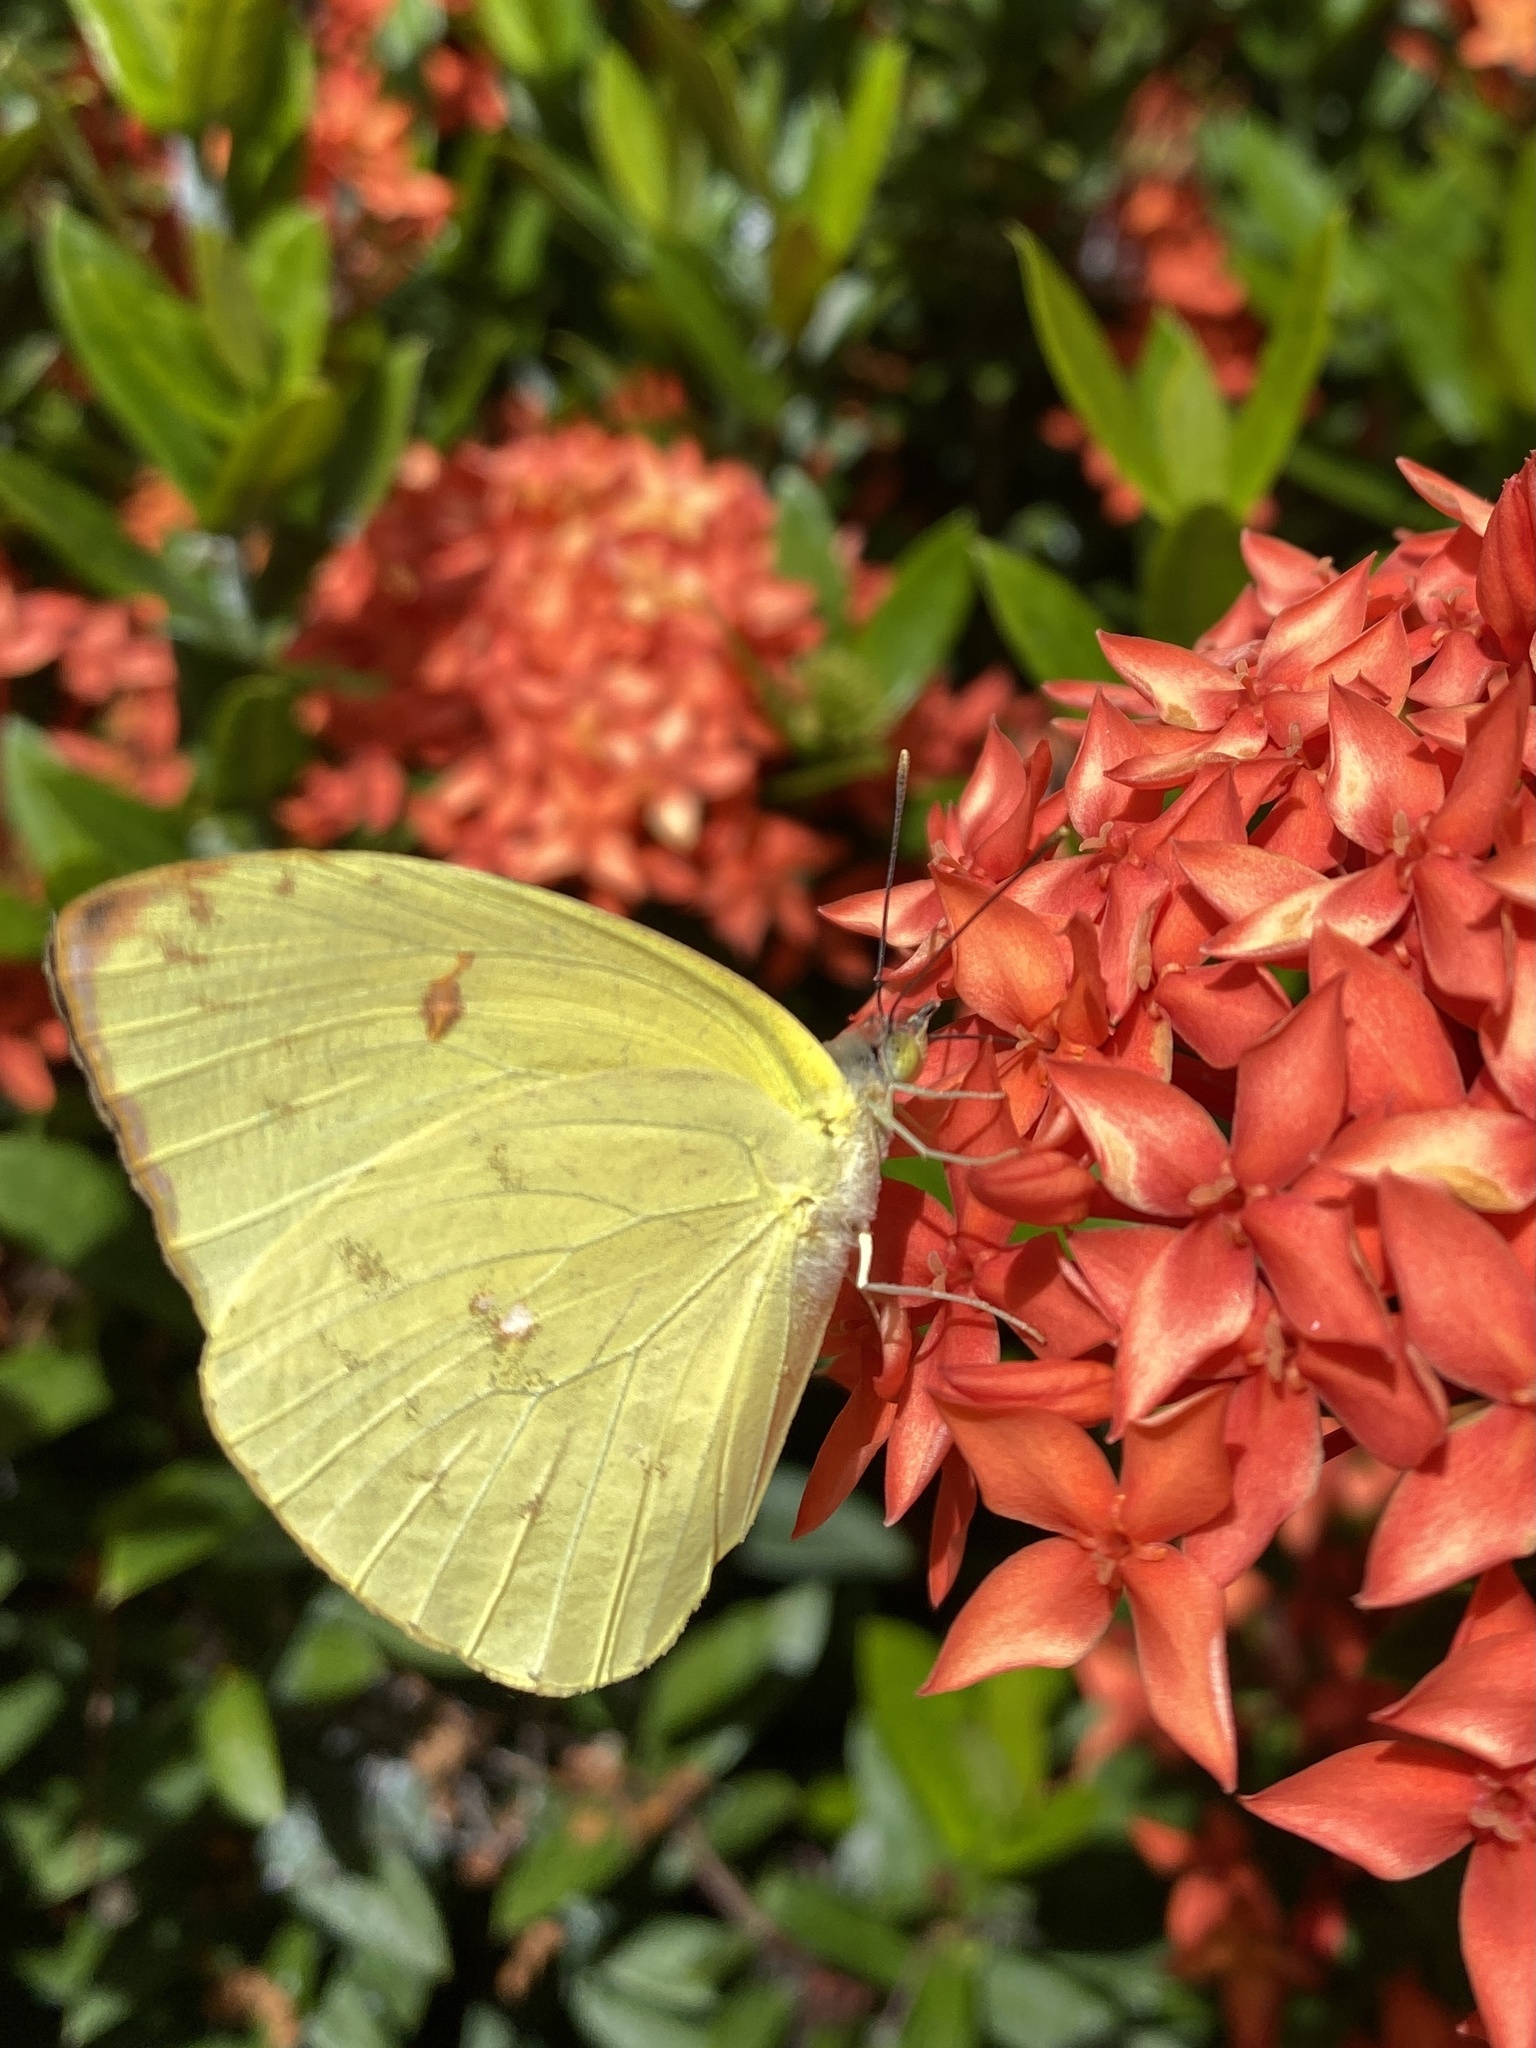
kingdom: Animalia
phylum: Arthropoda
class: Insecta
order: Lepidoptera
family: Pieridae
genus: Aphrissa
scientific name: Aphrissa statira
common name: Statira sulphur
